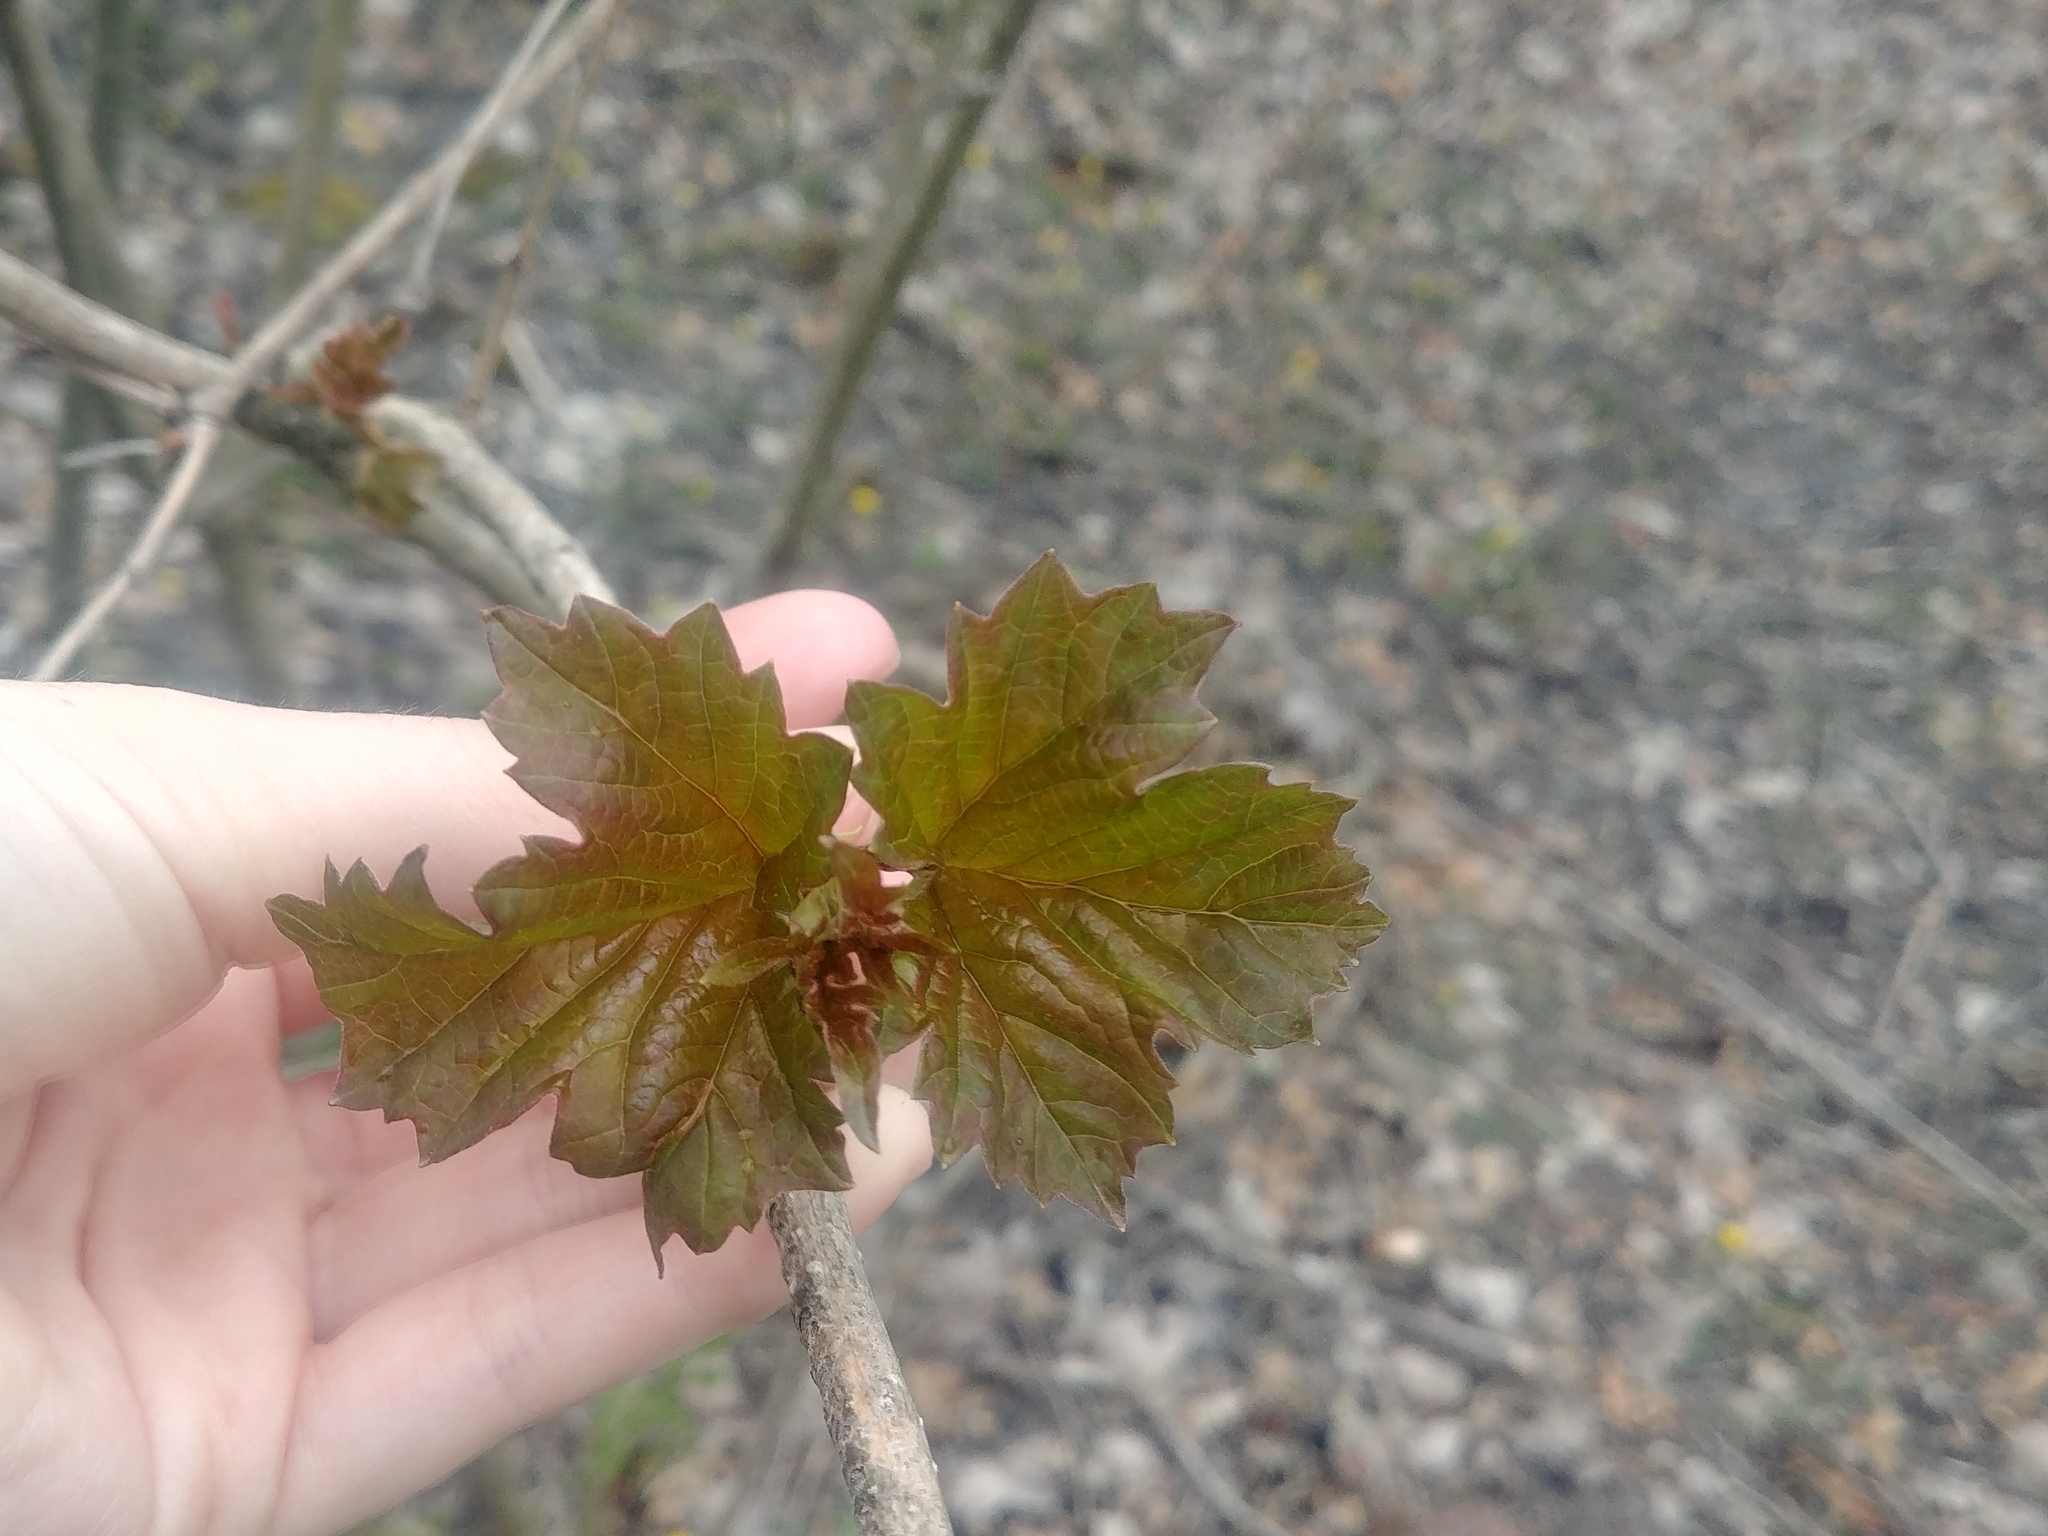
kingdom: Plantae
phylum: Tracheophyta
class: Magnoliopsida
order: Dipsacales
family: Viburnaceae
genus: Viburnum
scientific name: Viburnum opulus
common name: Guelder-rose
